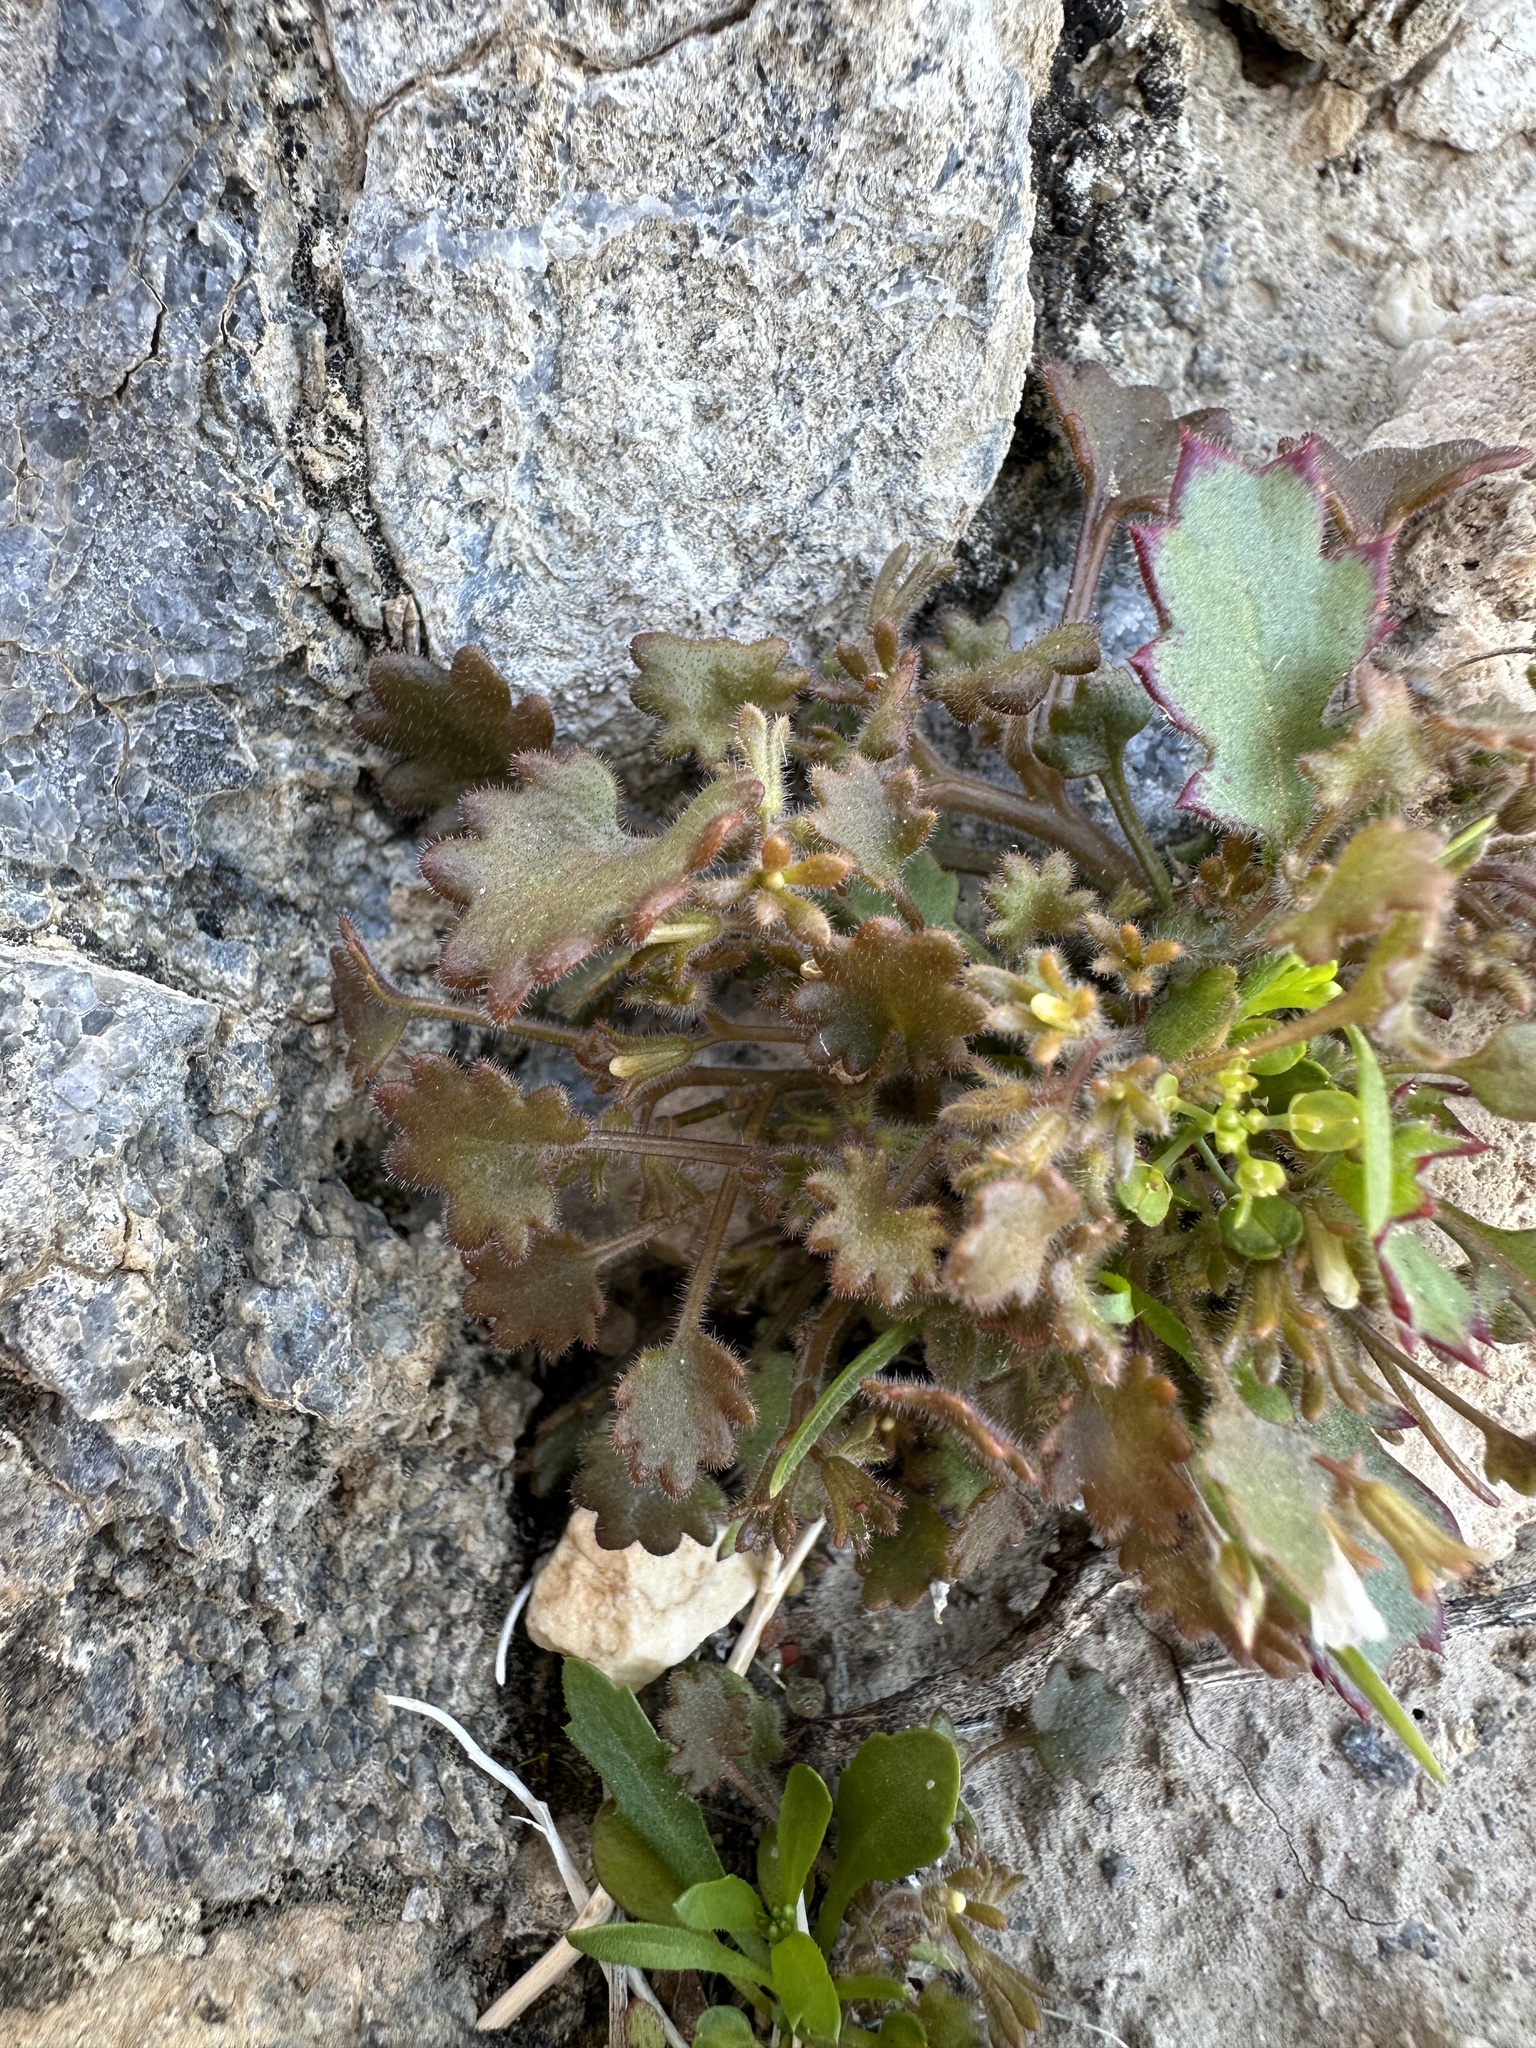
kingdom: Plantae
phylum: Tracheophyta
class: Magnoliopsida
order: Boraginales
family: Hydrophyllaceae
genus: Phacelia
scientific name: Phacelia rotundifolia
